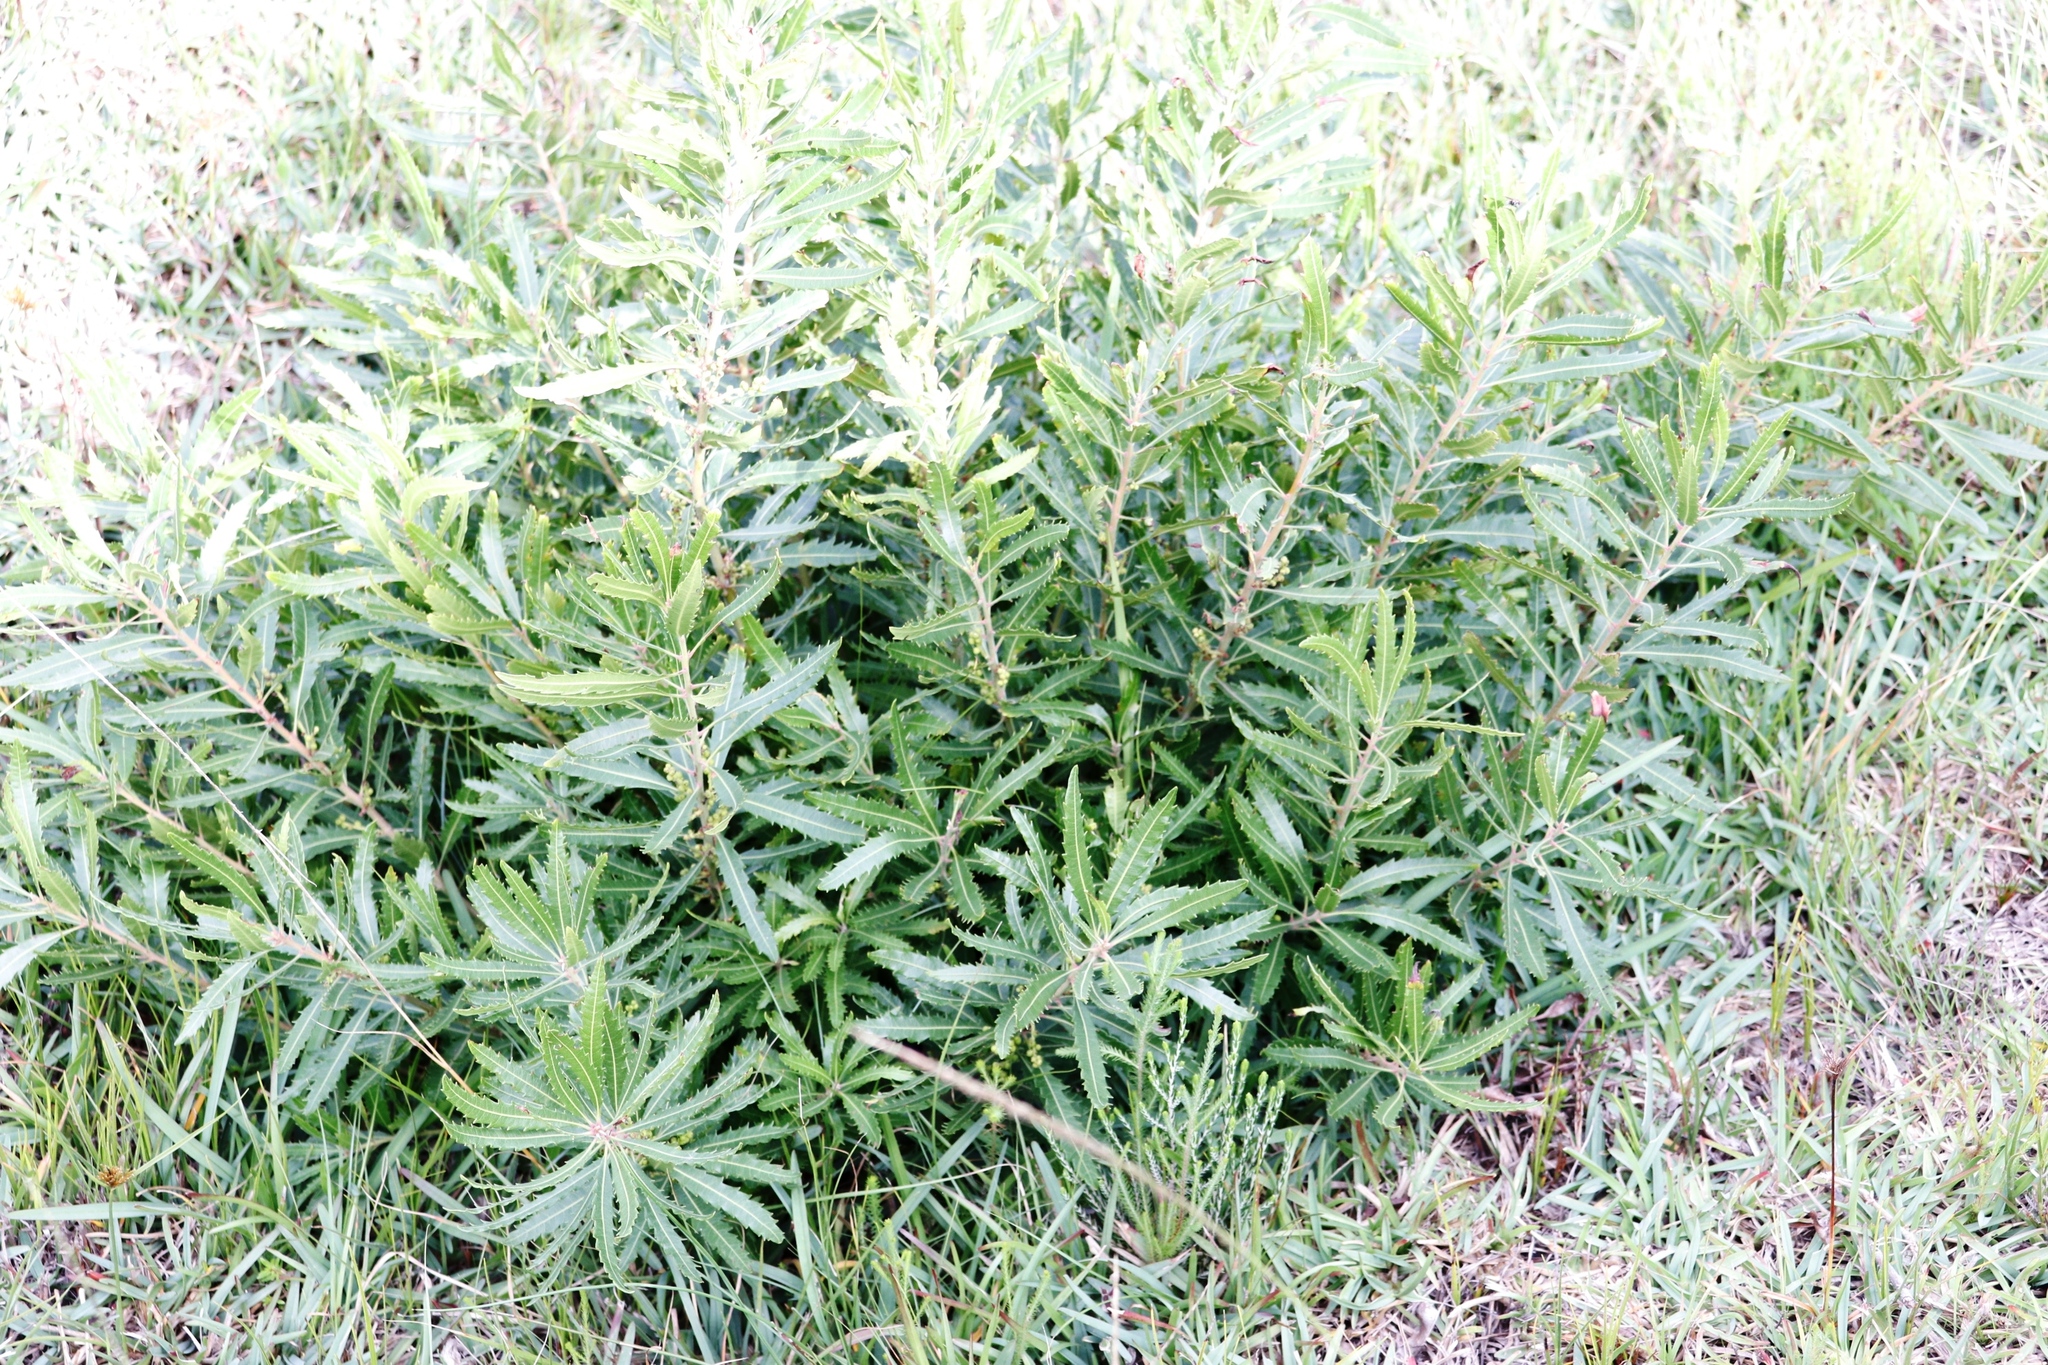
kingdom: Plantae
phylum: Tracheophyta
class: Magnoliopsida
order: Fagales
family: Myricaceae
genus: Morella
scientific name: Morella serrata
